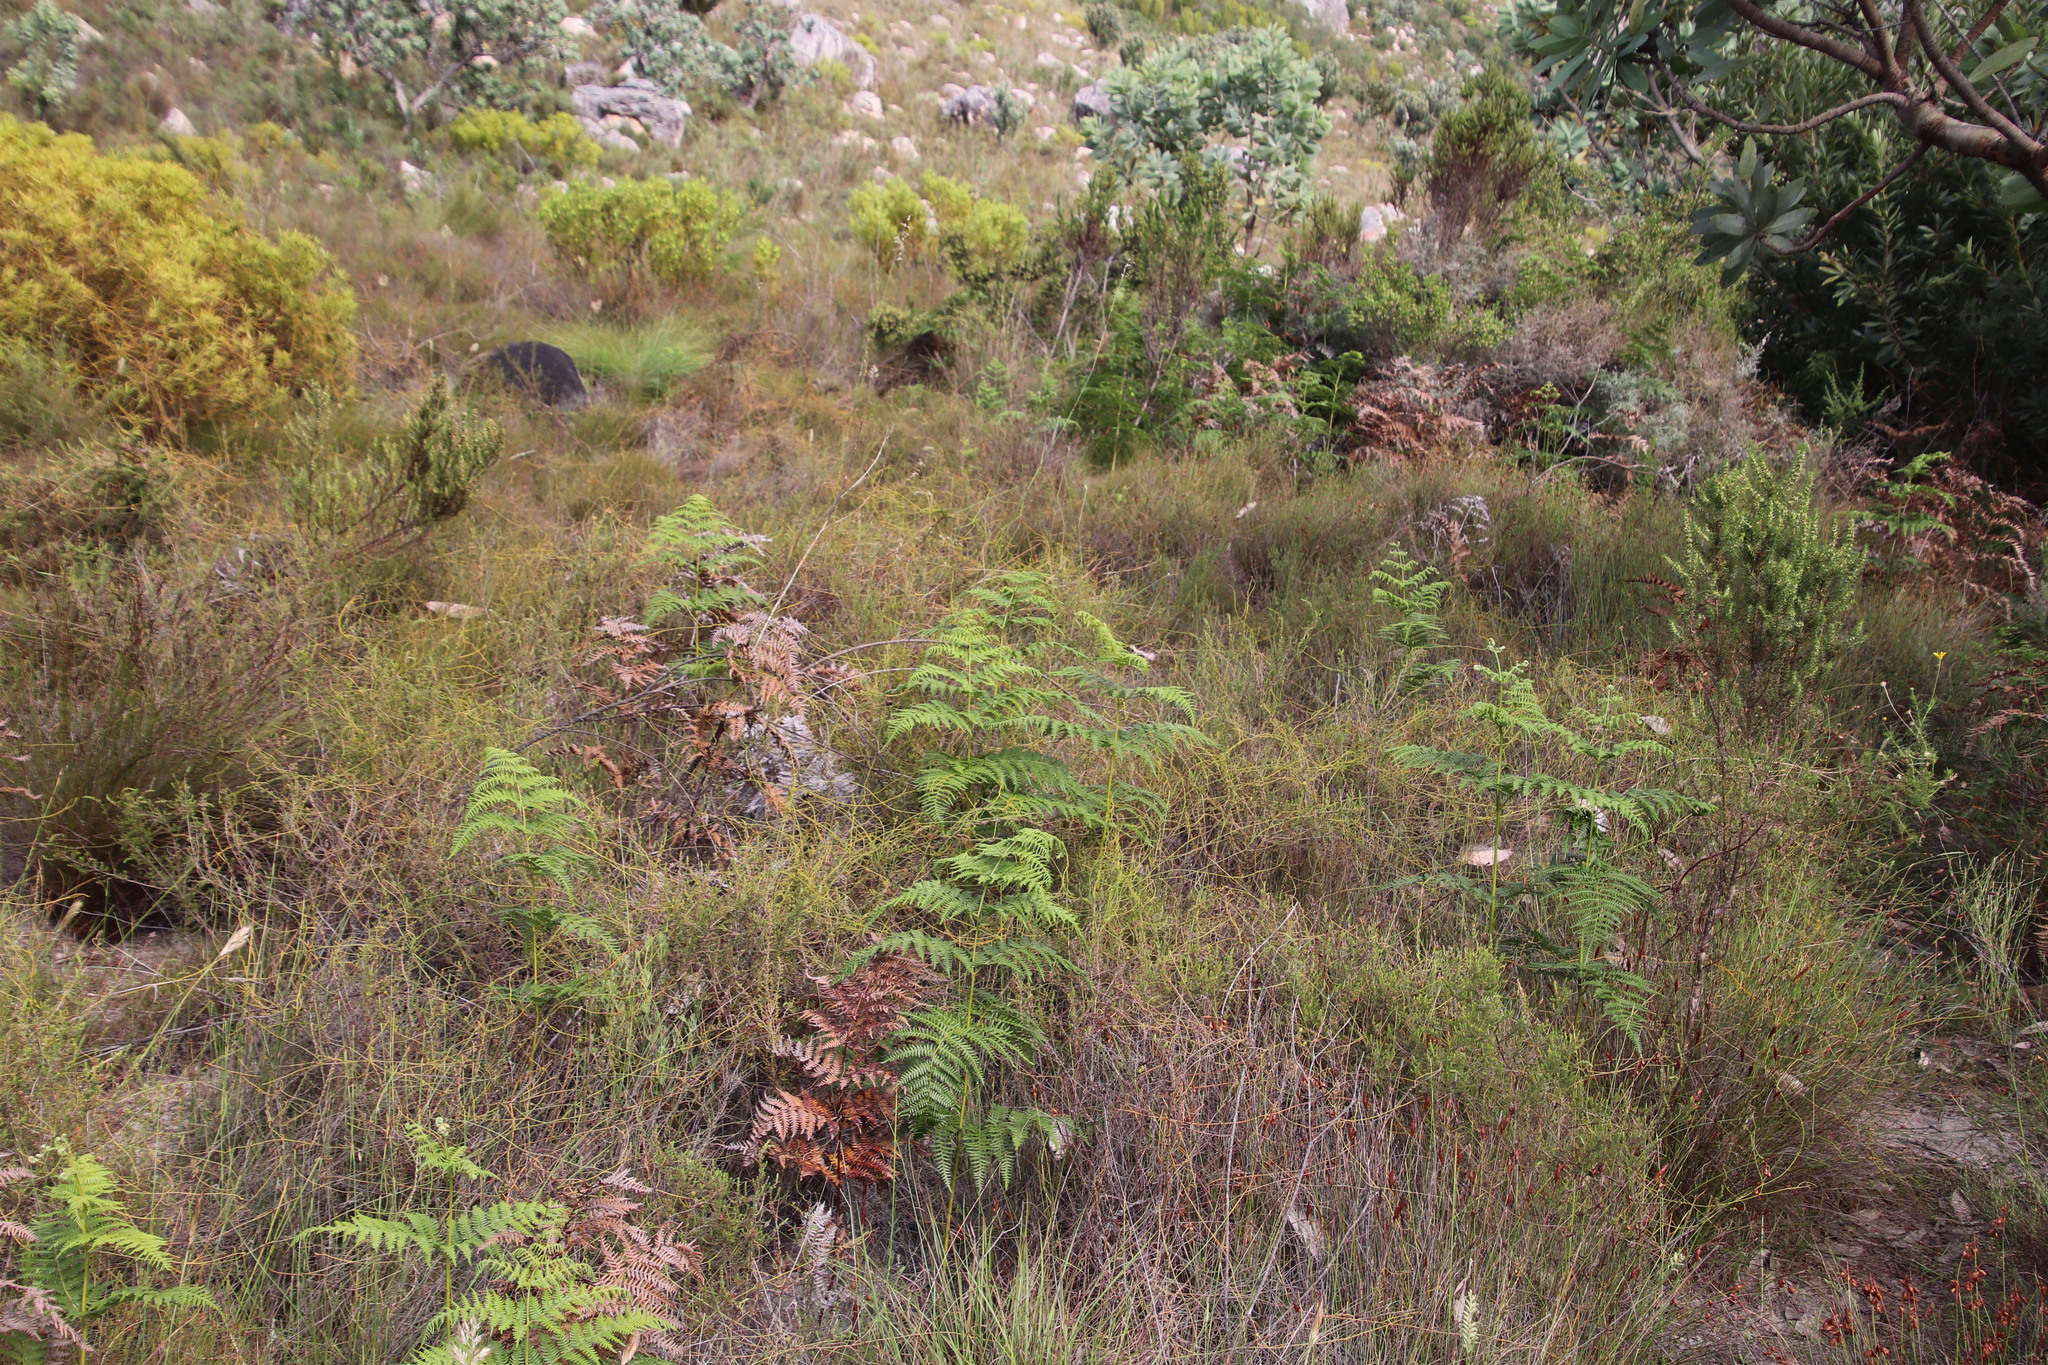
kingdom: Plantae
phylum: Tracheophyta
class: Polypodiopsida
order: Polypodiales
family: Dennstaedtiaceae
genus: Pteridium
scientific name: Pteridium aquilinum
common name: Bracken
